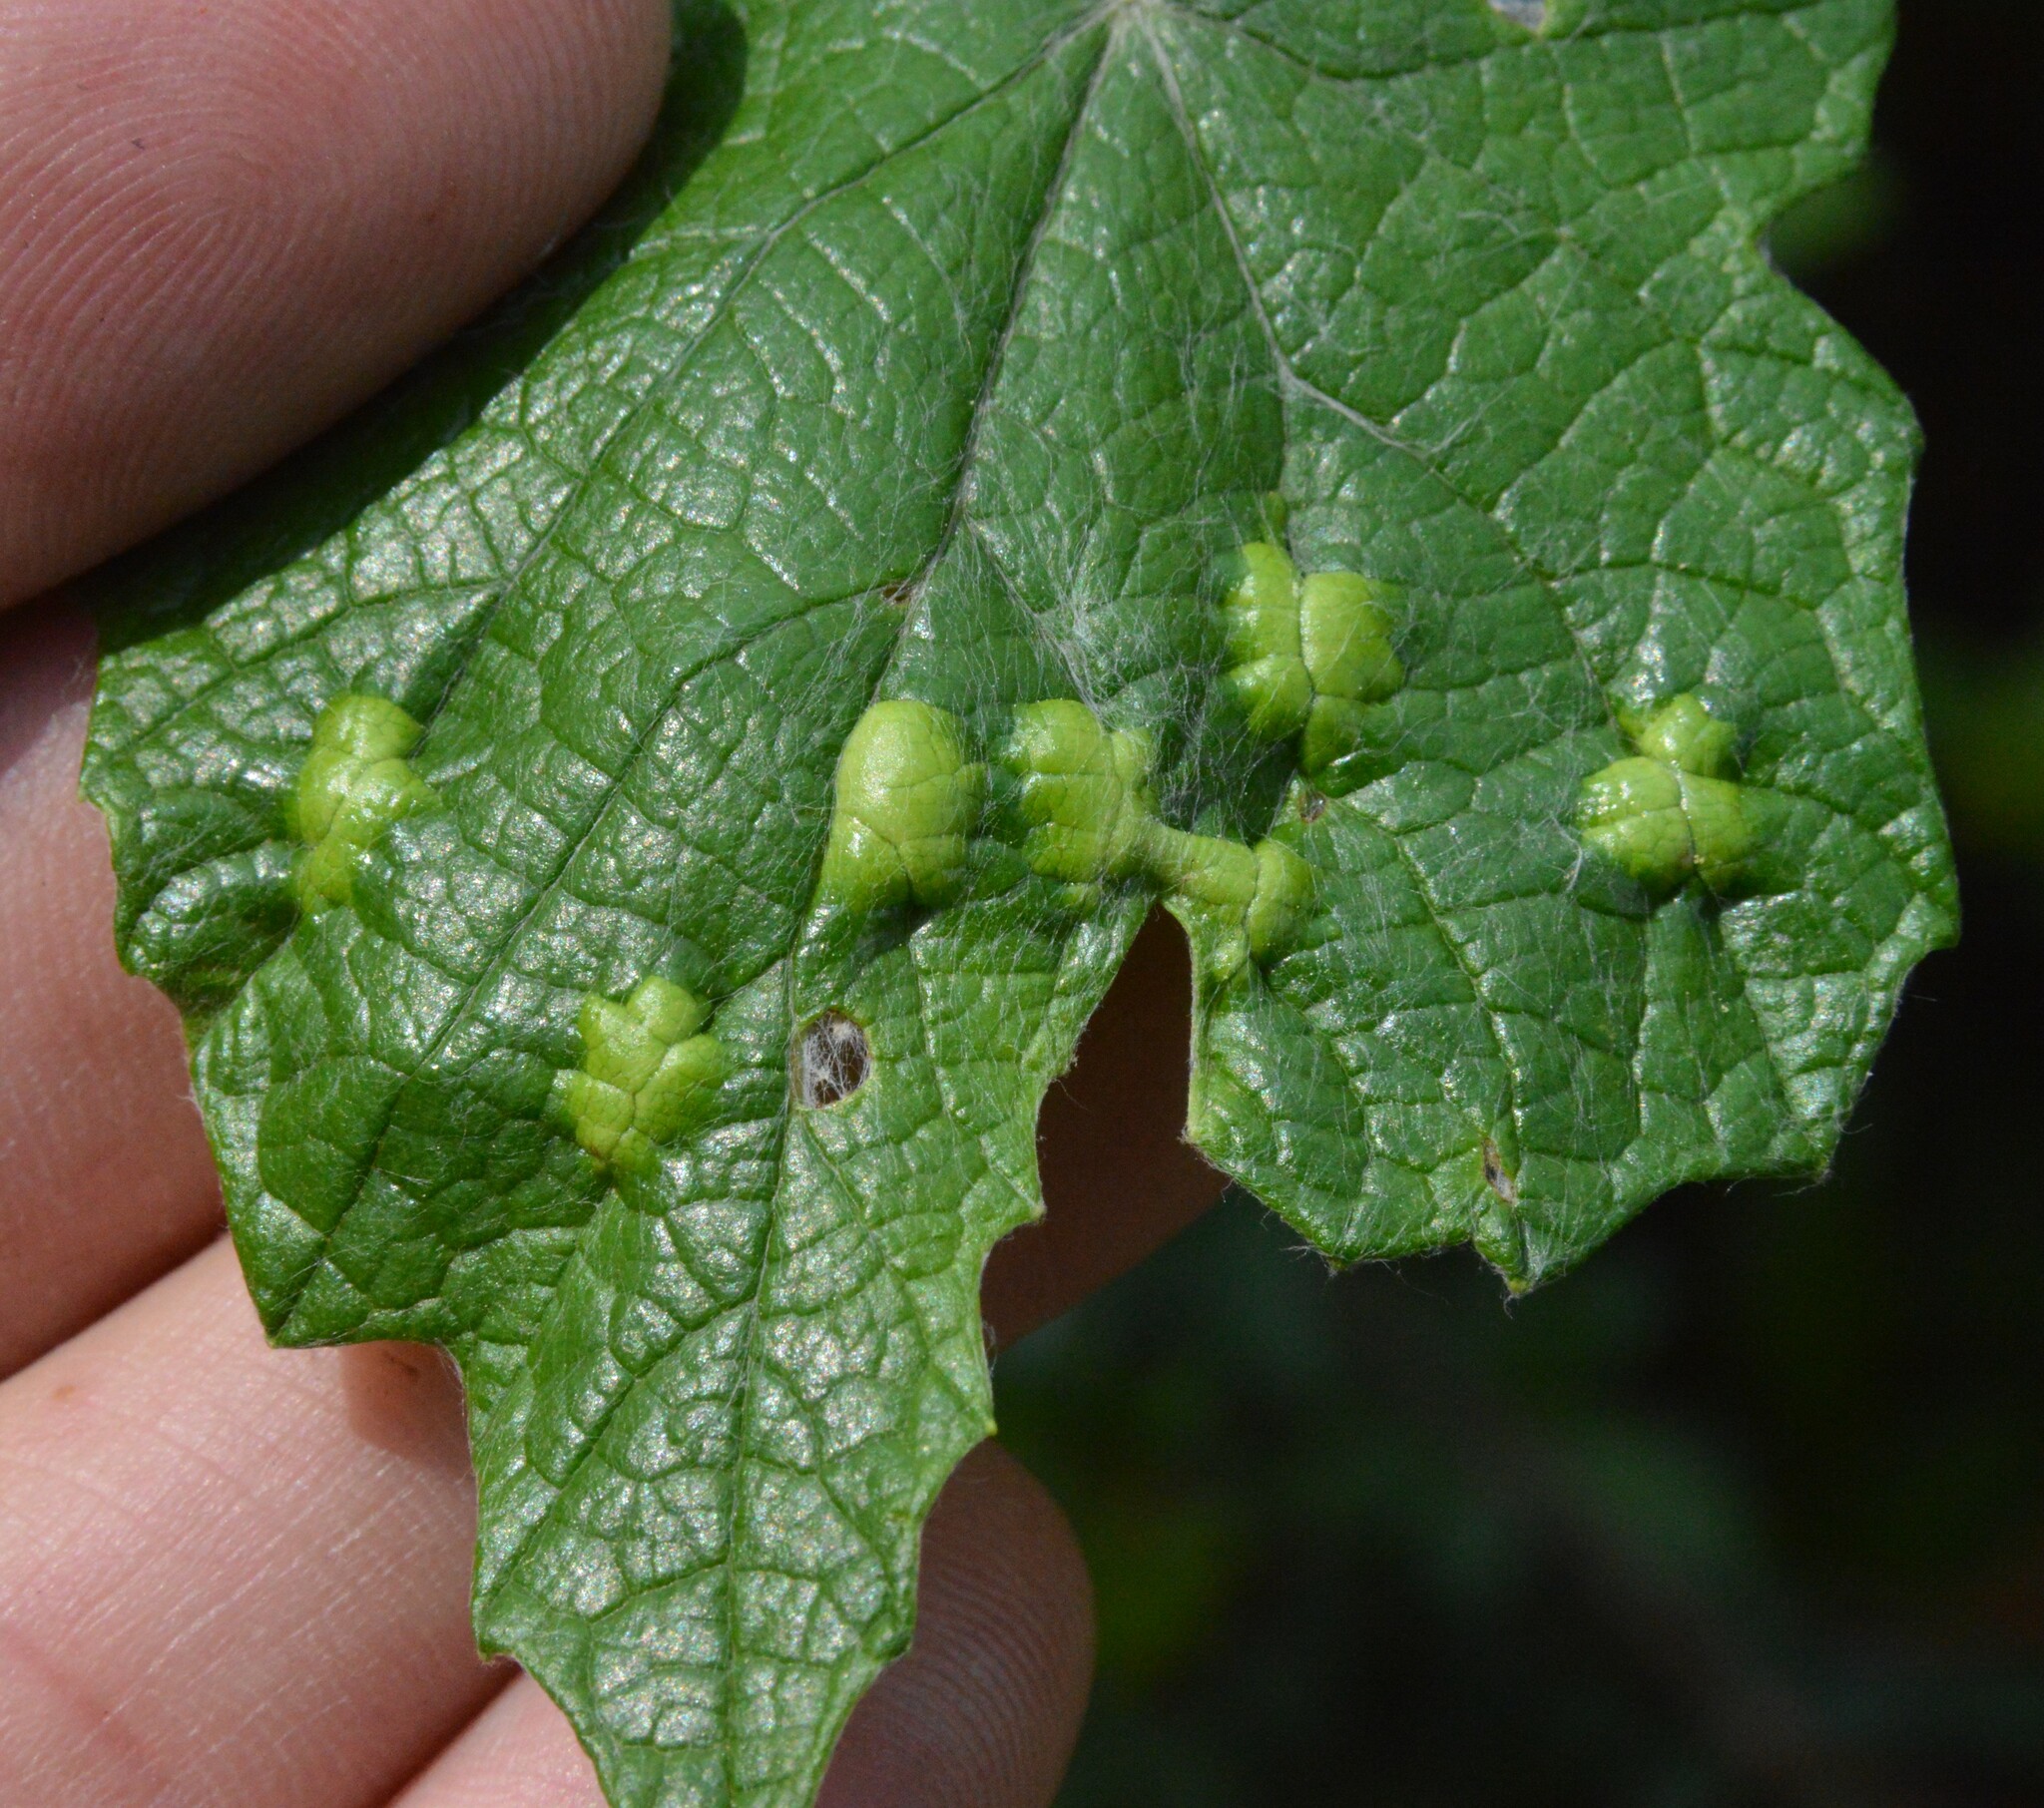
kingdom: Animalia
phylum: Arthropoda
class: Insecta
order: Lepidoptera
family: Heliozelidae
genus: Heliozela
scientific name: Heliozela aesella
